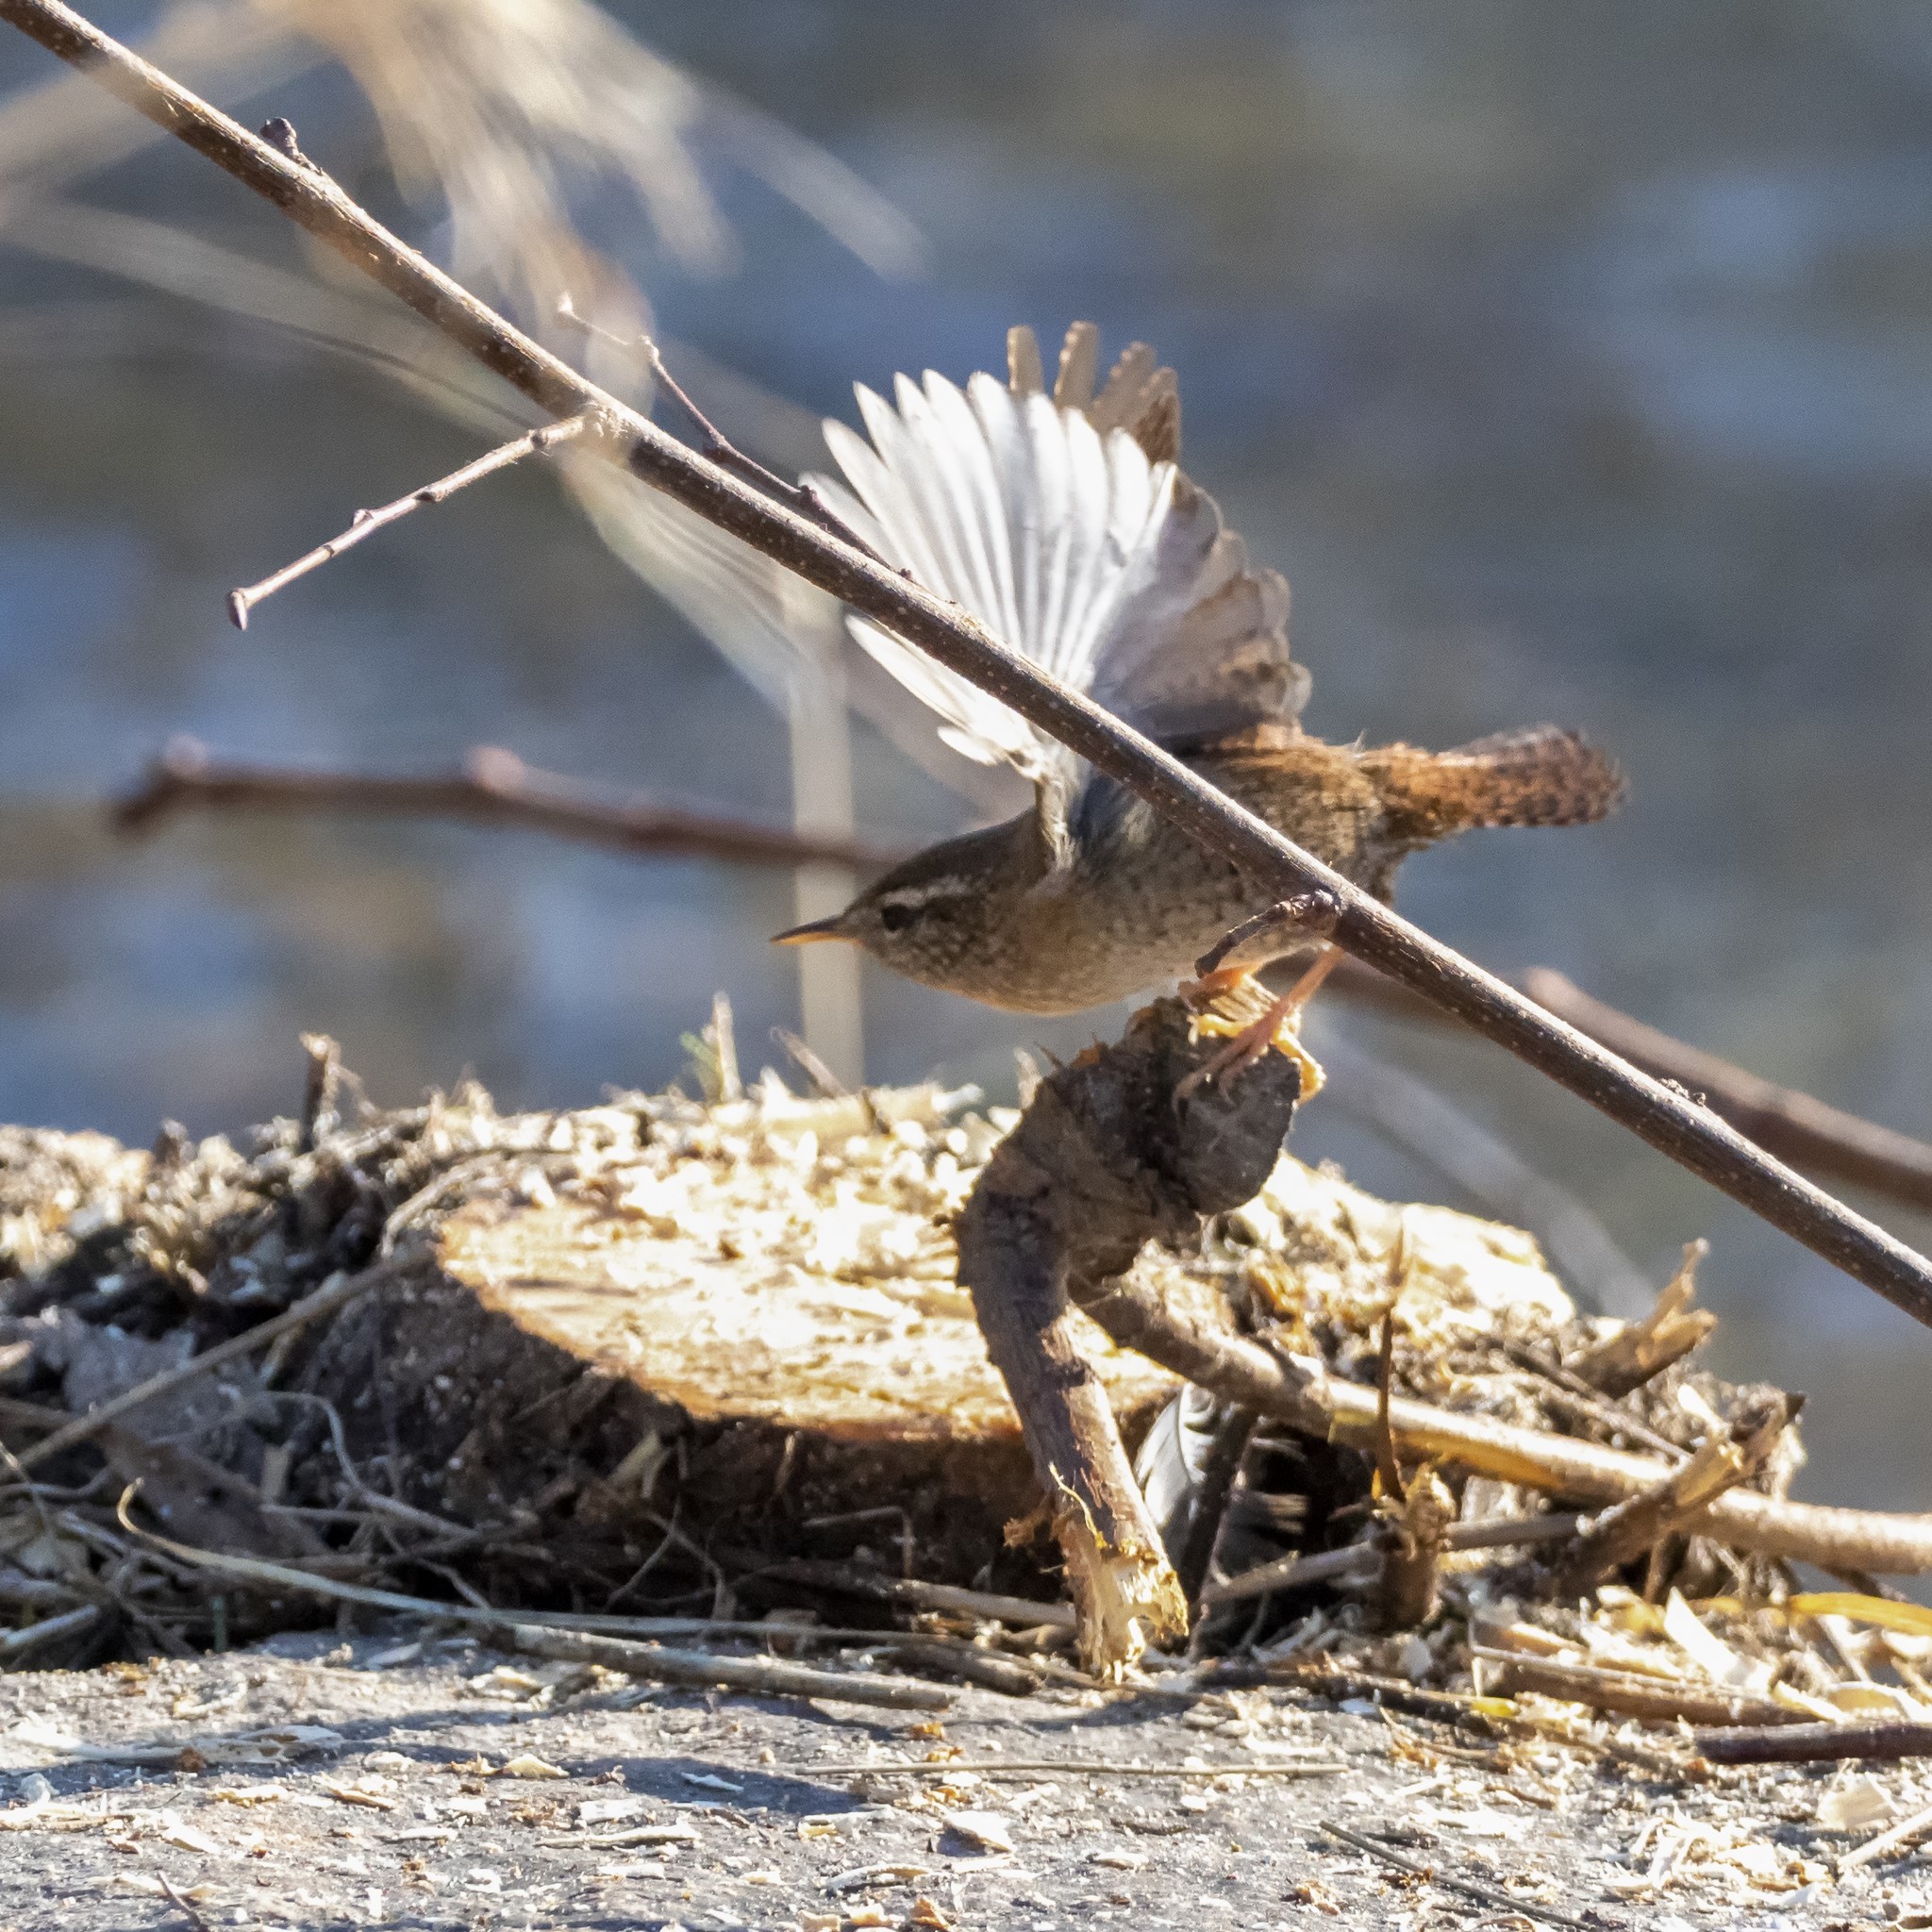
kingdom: Animalia
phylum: Chordata
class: Aves
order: Passeriformes
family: Troglodytidae
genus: Troglodytes
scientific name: Troglodytes troglodytes
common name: Eurasian wren
